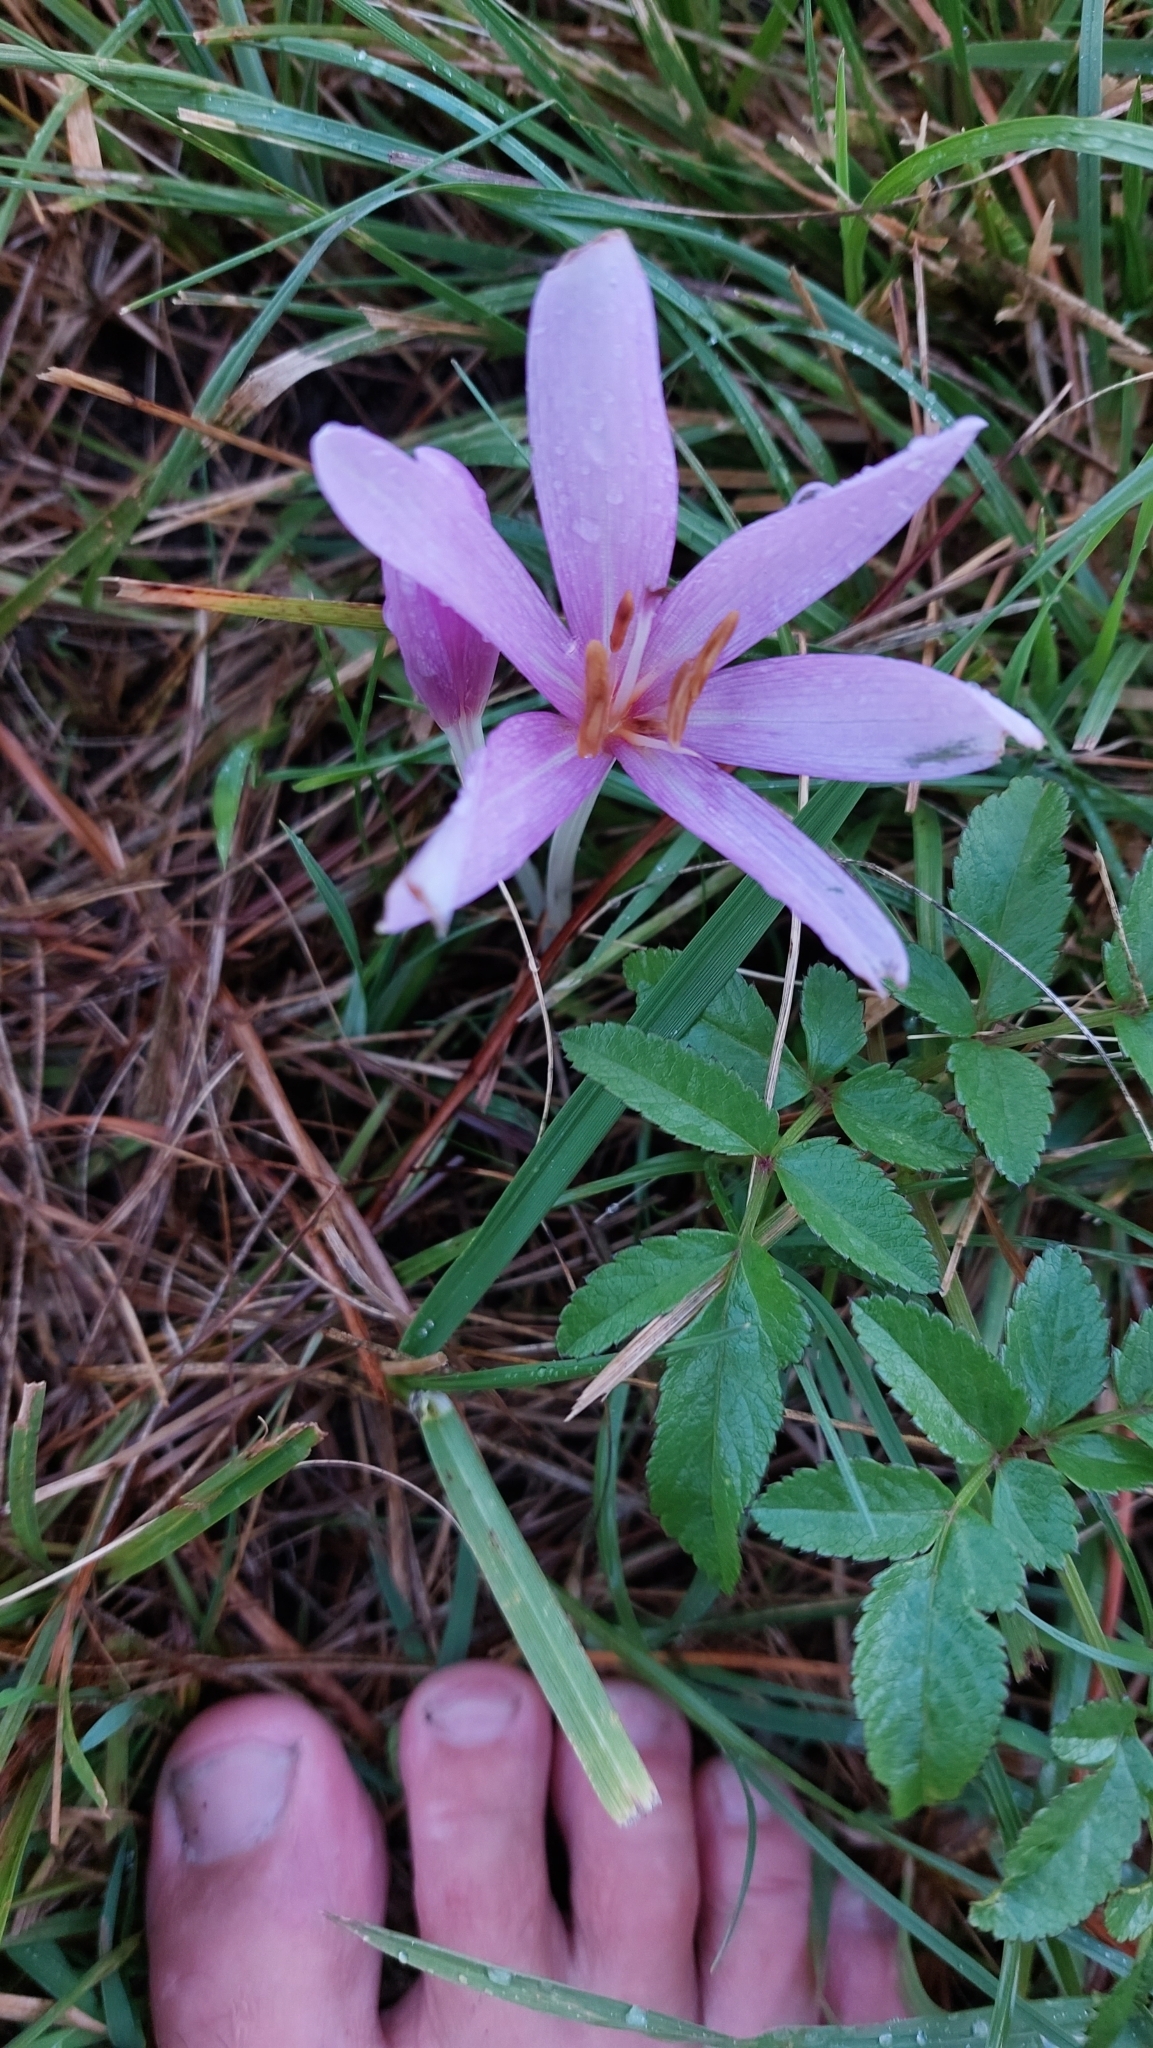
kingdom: Plantae
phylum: Tracheophyta
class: Liliopsida
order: Liliales
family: Colchicaceae
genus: Colchicum
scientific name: Colchicum autumnale
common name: Autumn crocus
